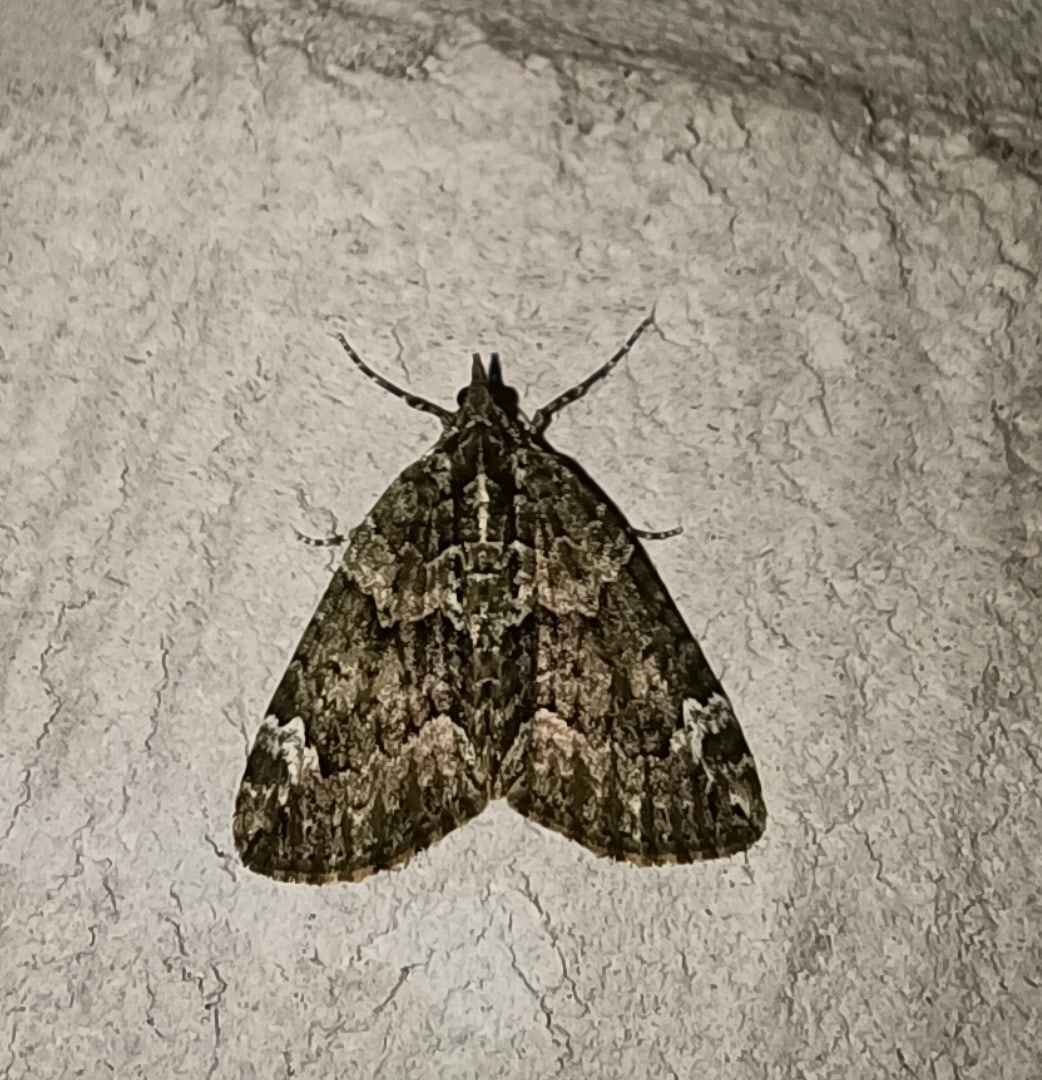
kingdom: Animalia
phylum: Arthropoda
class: Insecta
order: Lepidoptera
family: Geometridae
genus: Chloroclysta
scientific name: Chloroclysta siterata
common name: Red-green carpet
